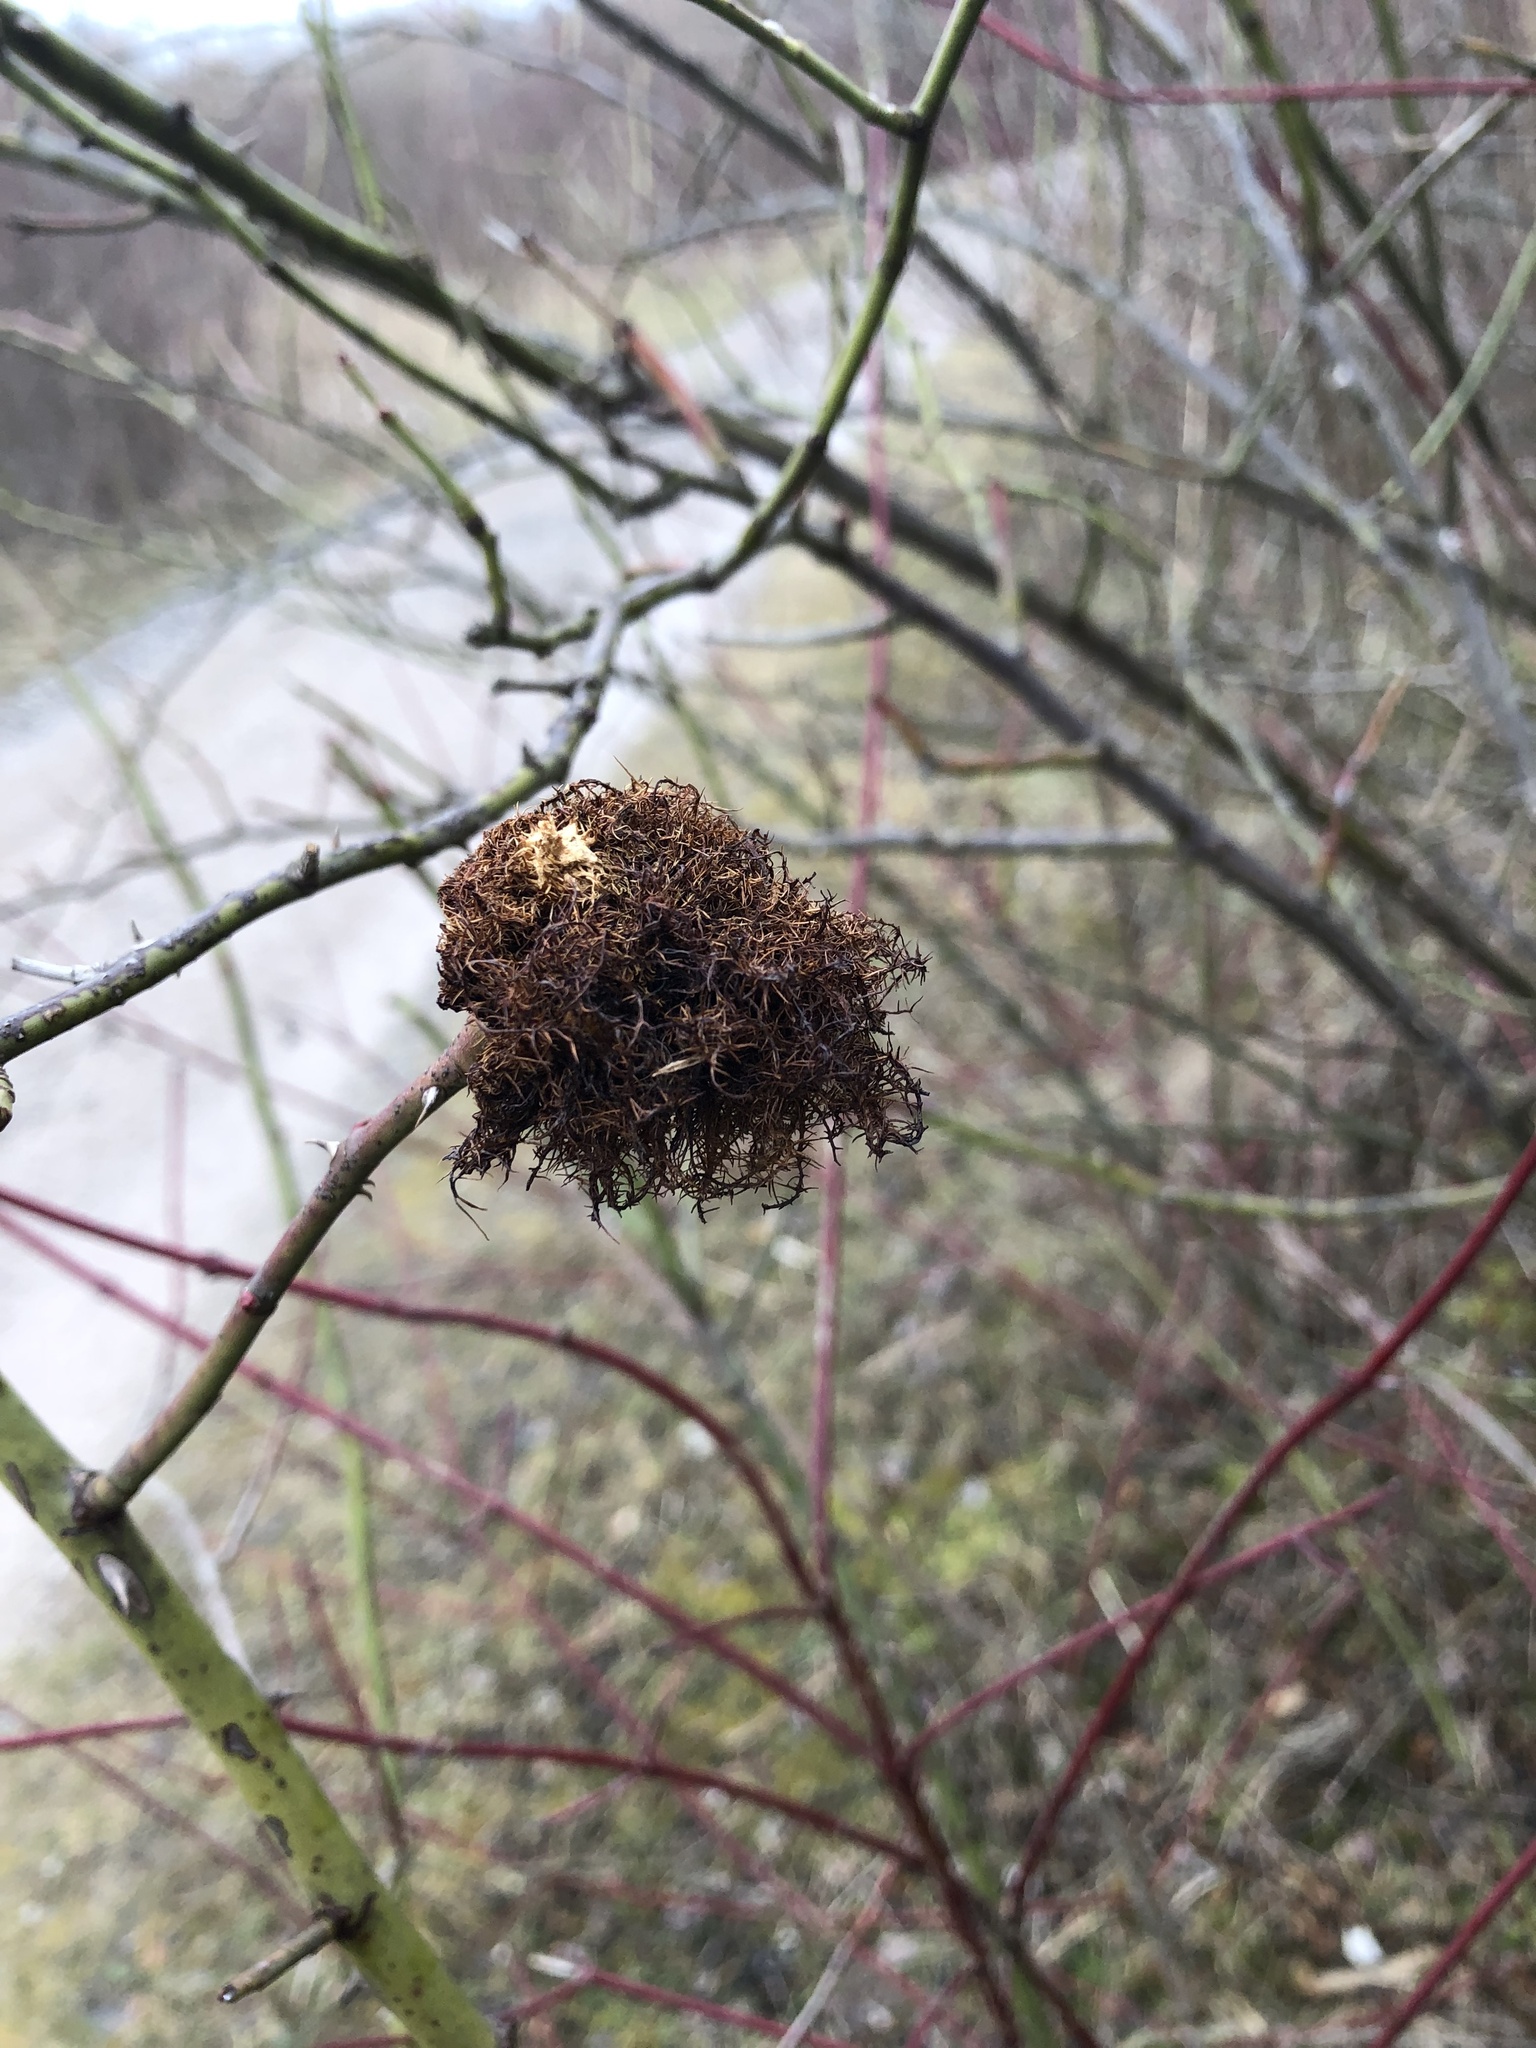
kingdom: Animalia
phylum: Arthropoda
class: Insecta
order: Hymenoptera
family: Cynipidae
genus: Diplolepis
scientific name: Diplolepis rosae
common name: Bedeguar gall
